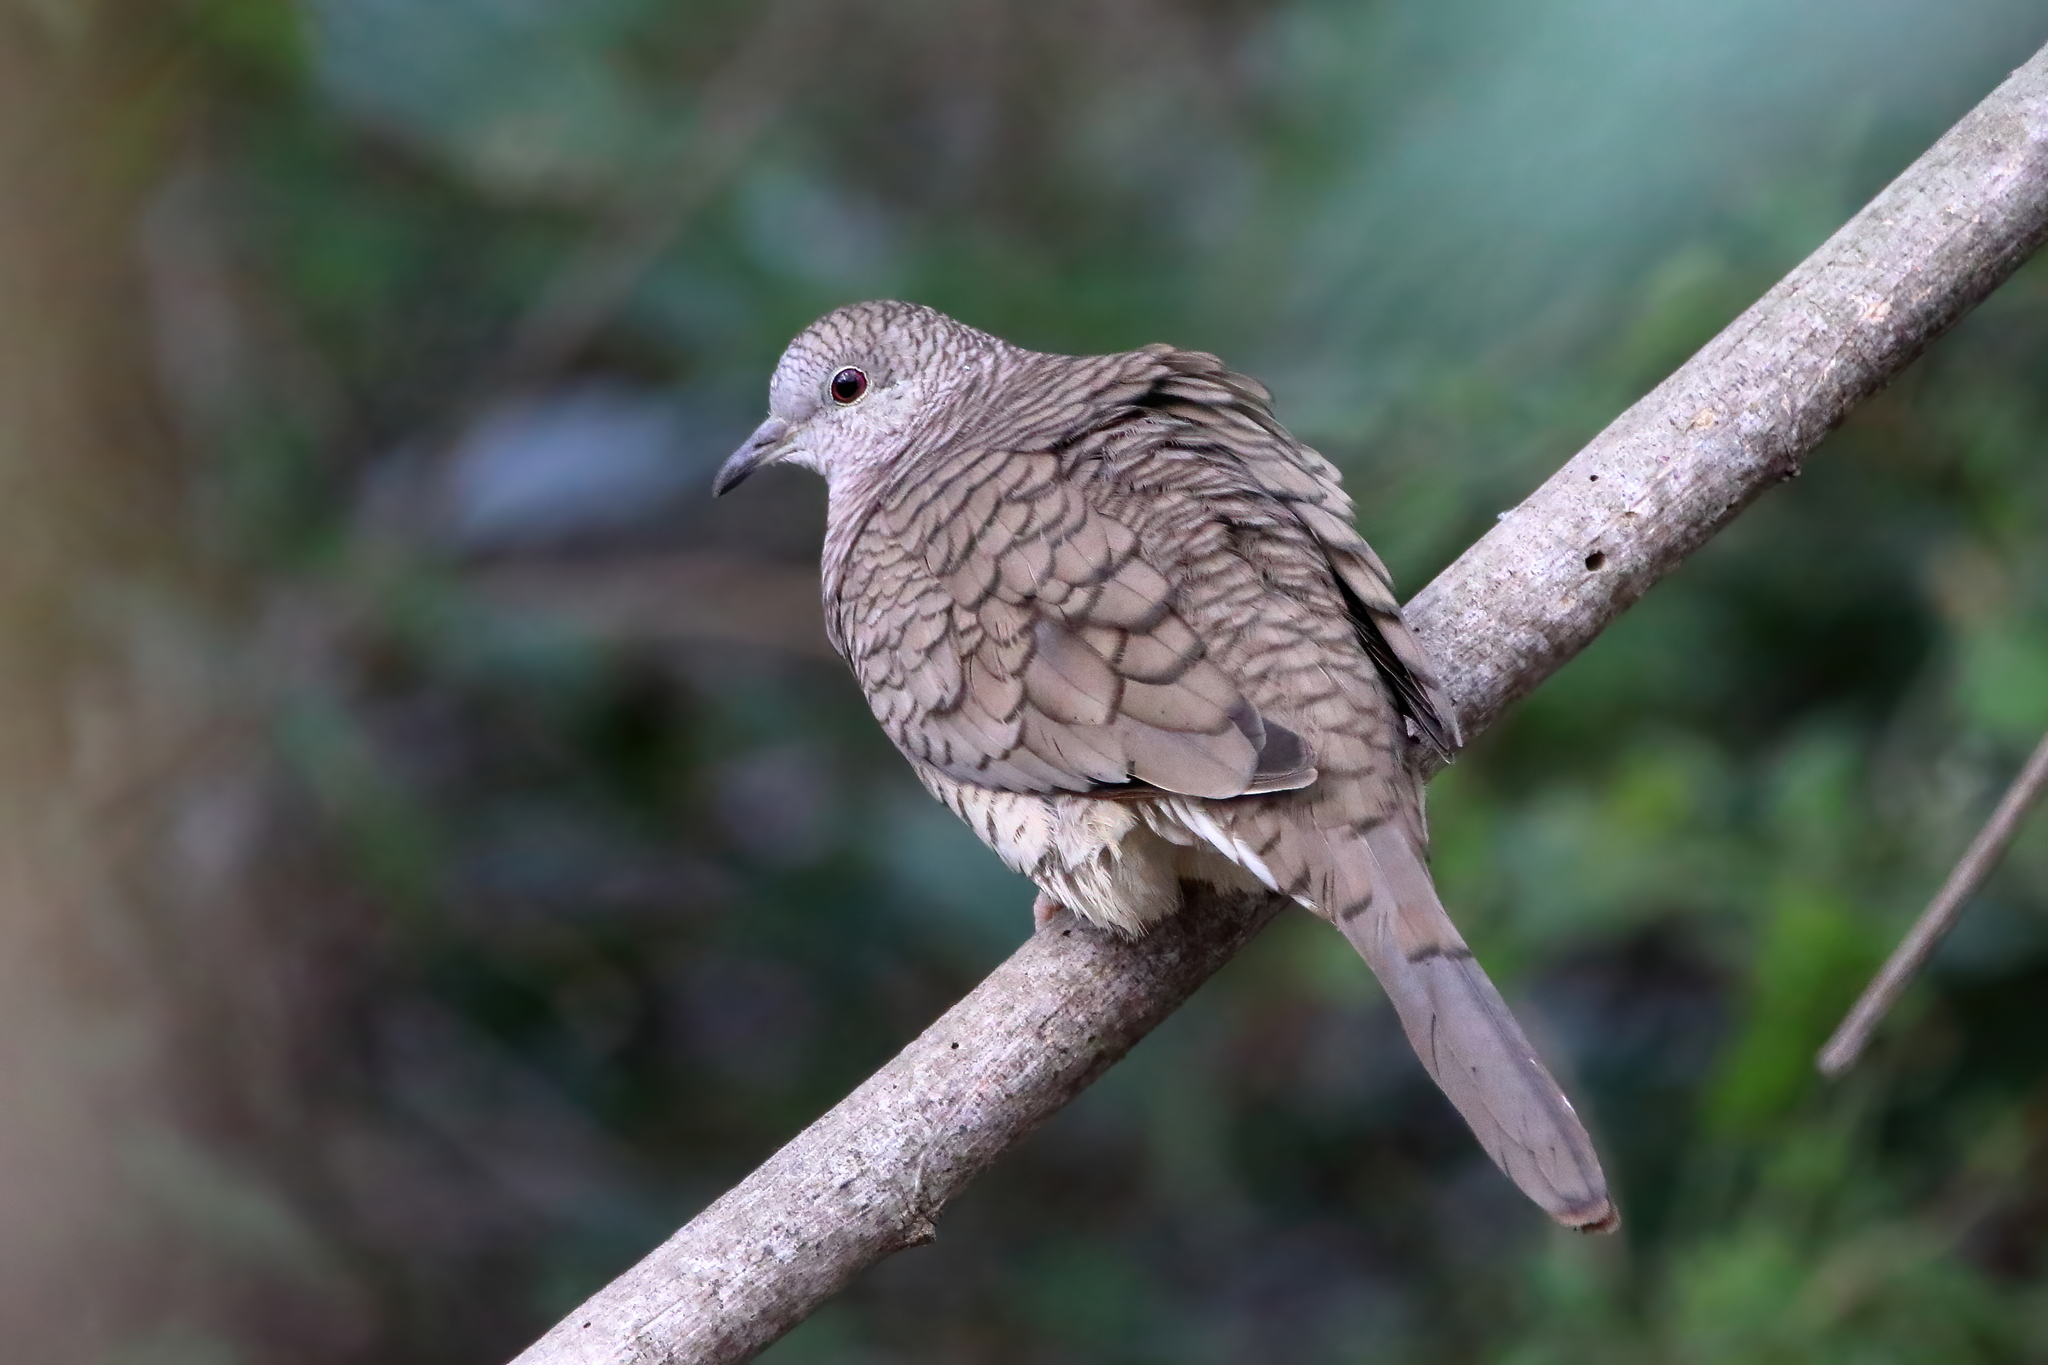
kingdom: Animalia
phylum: Chordata
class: Aves
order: Columbiformes
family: Columbidae
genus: Columbina
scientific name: Columbina inca
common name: Inca dove
